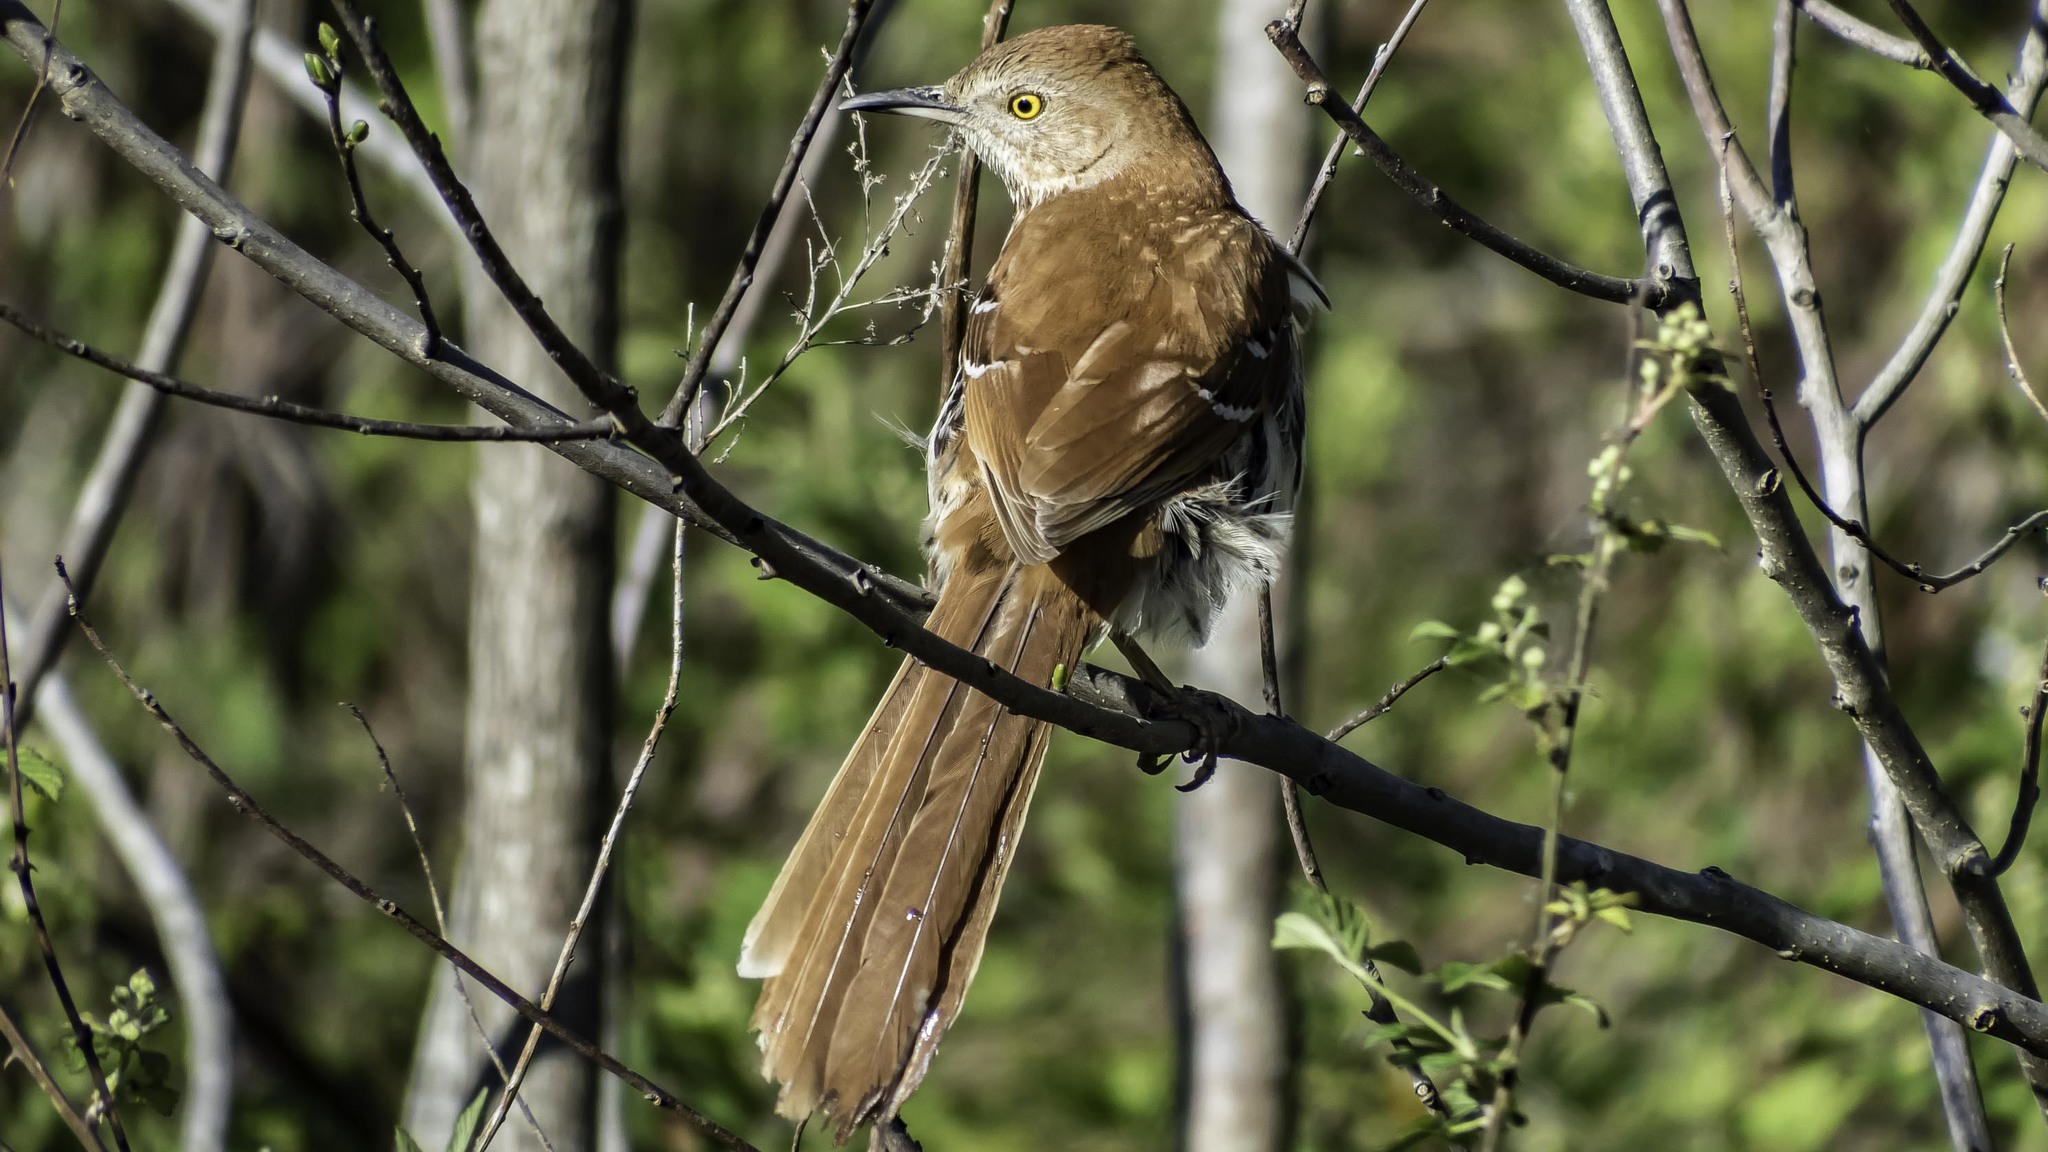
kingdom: Animalia
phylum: Chordata
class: Aves
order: Passeriformes
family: Mimidae
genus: Toxostoma
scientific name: Toxostoma rufum
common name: Brown thrasher
